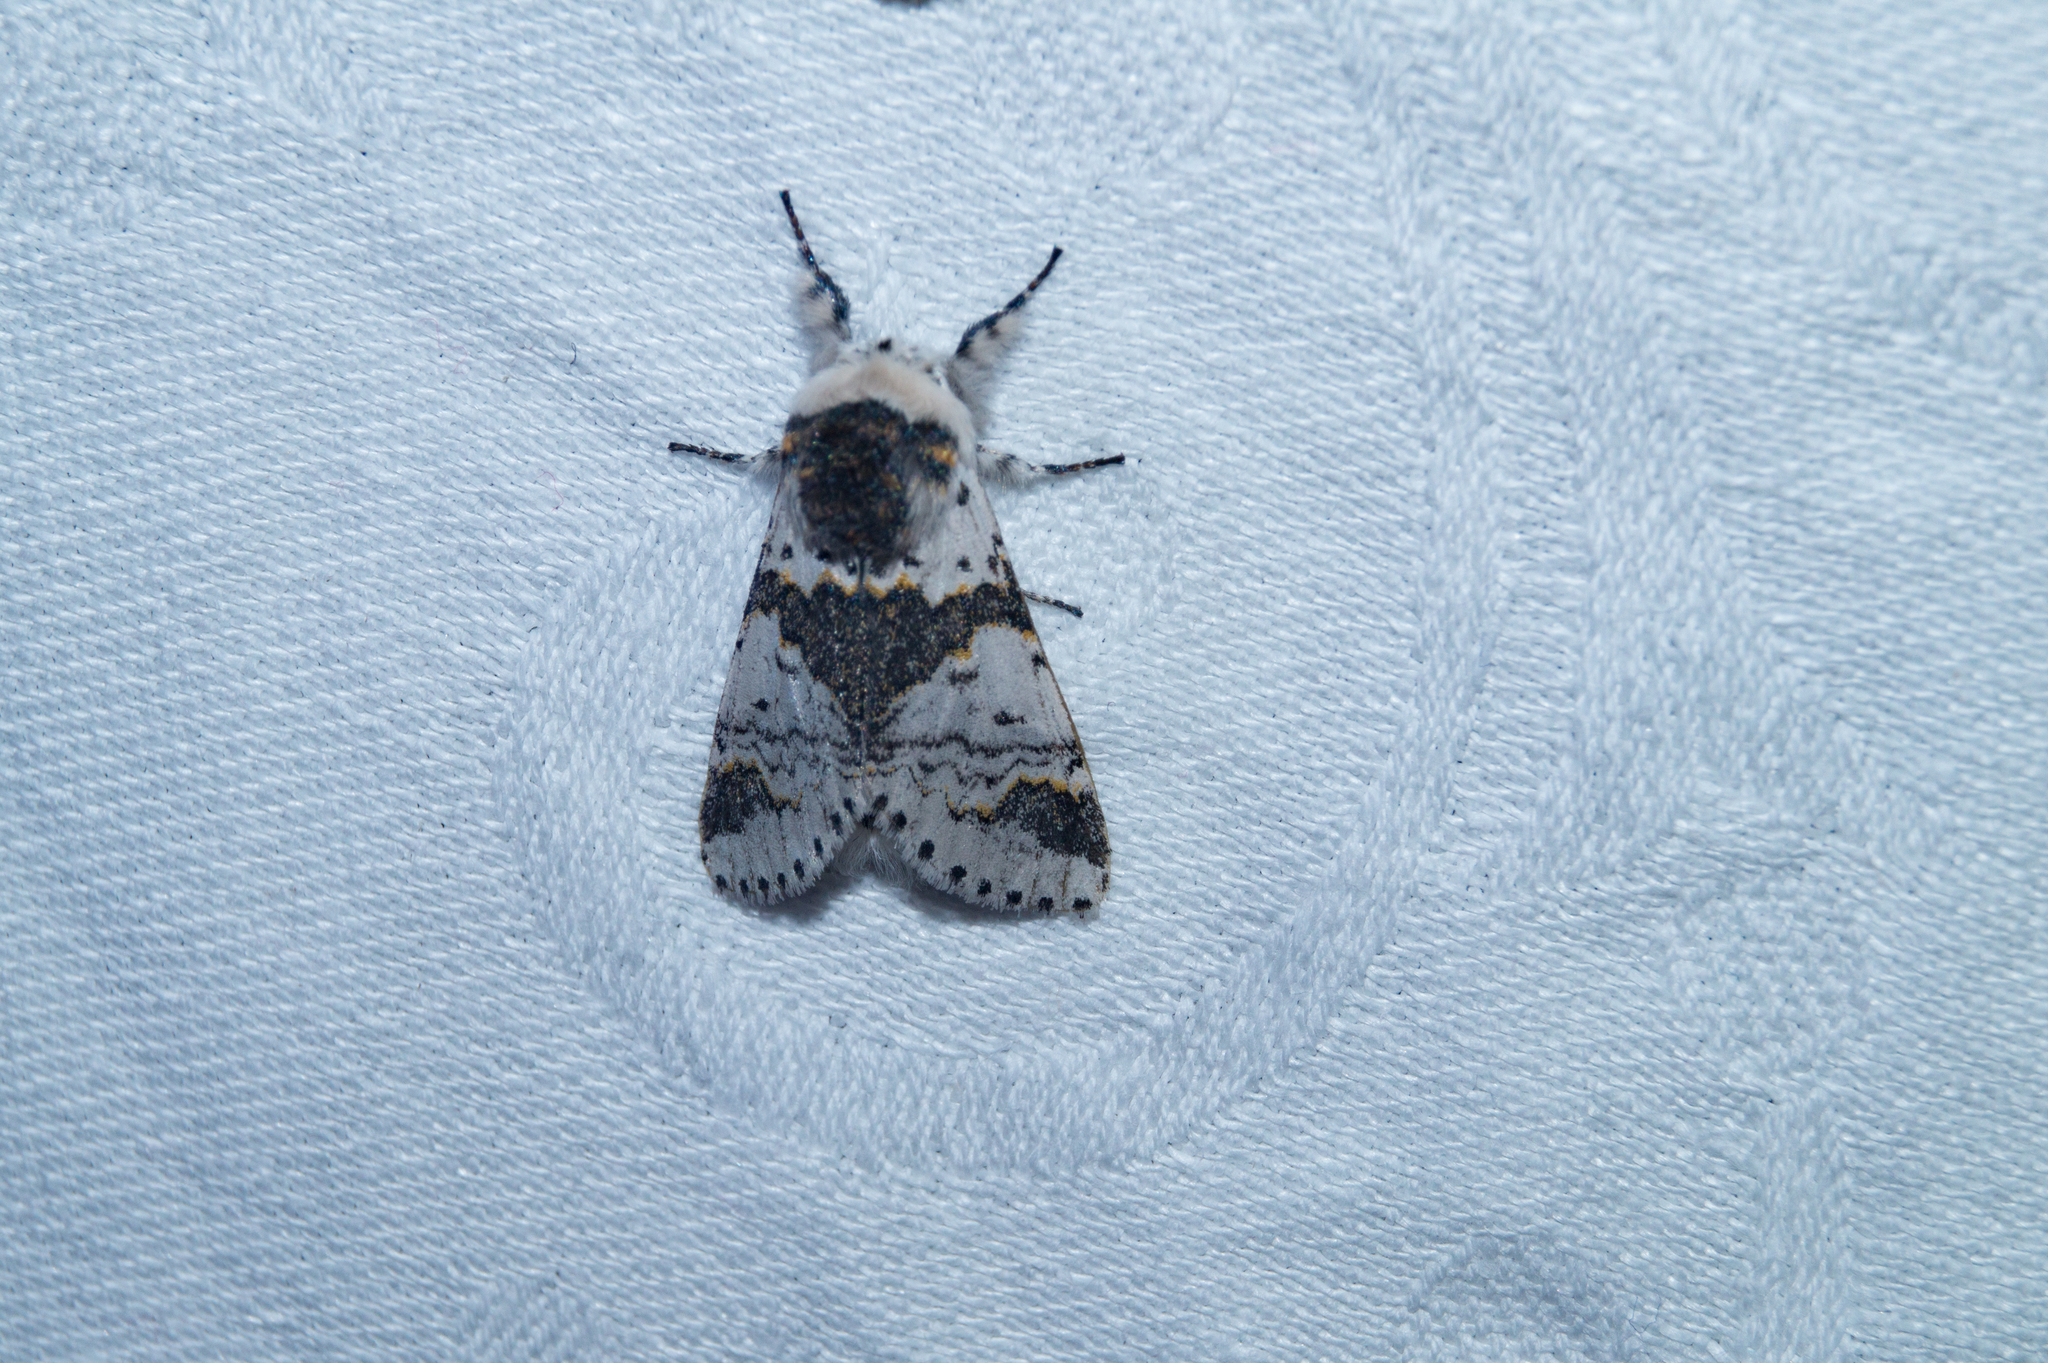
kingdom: Animalia
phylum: Arthropoda
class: Insecta
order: Lepidoptera
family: Notodontidae
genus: Furcula
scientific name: Furcula bicuspis
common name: Alder kitten
